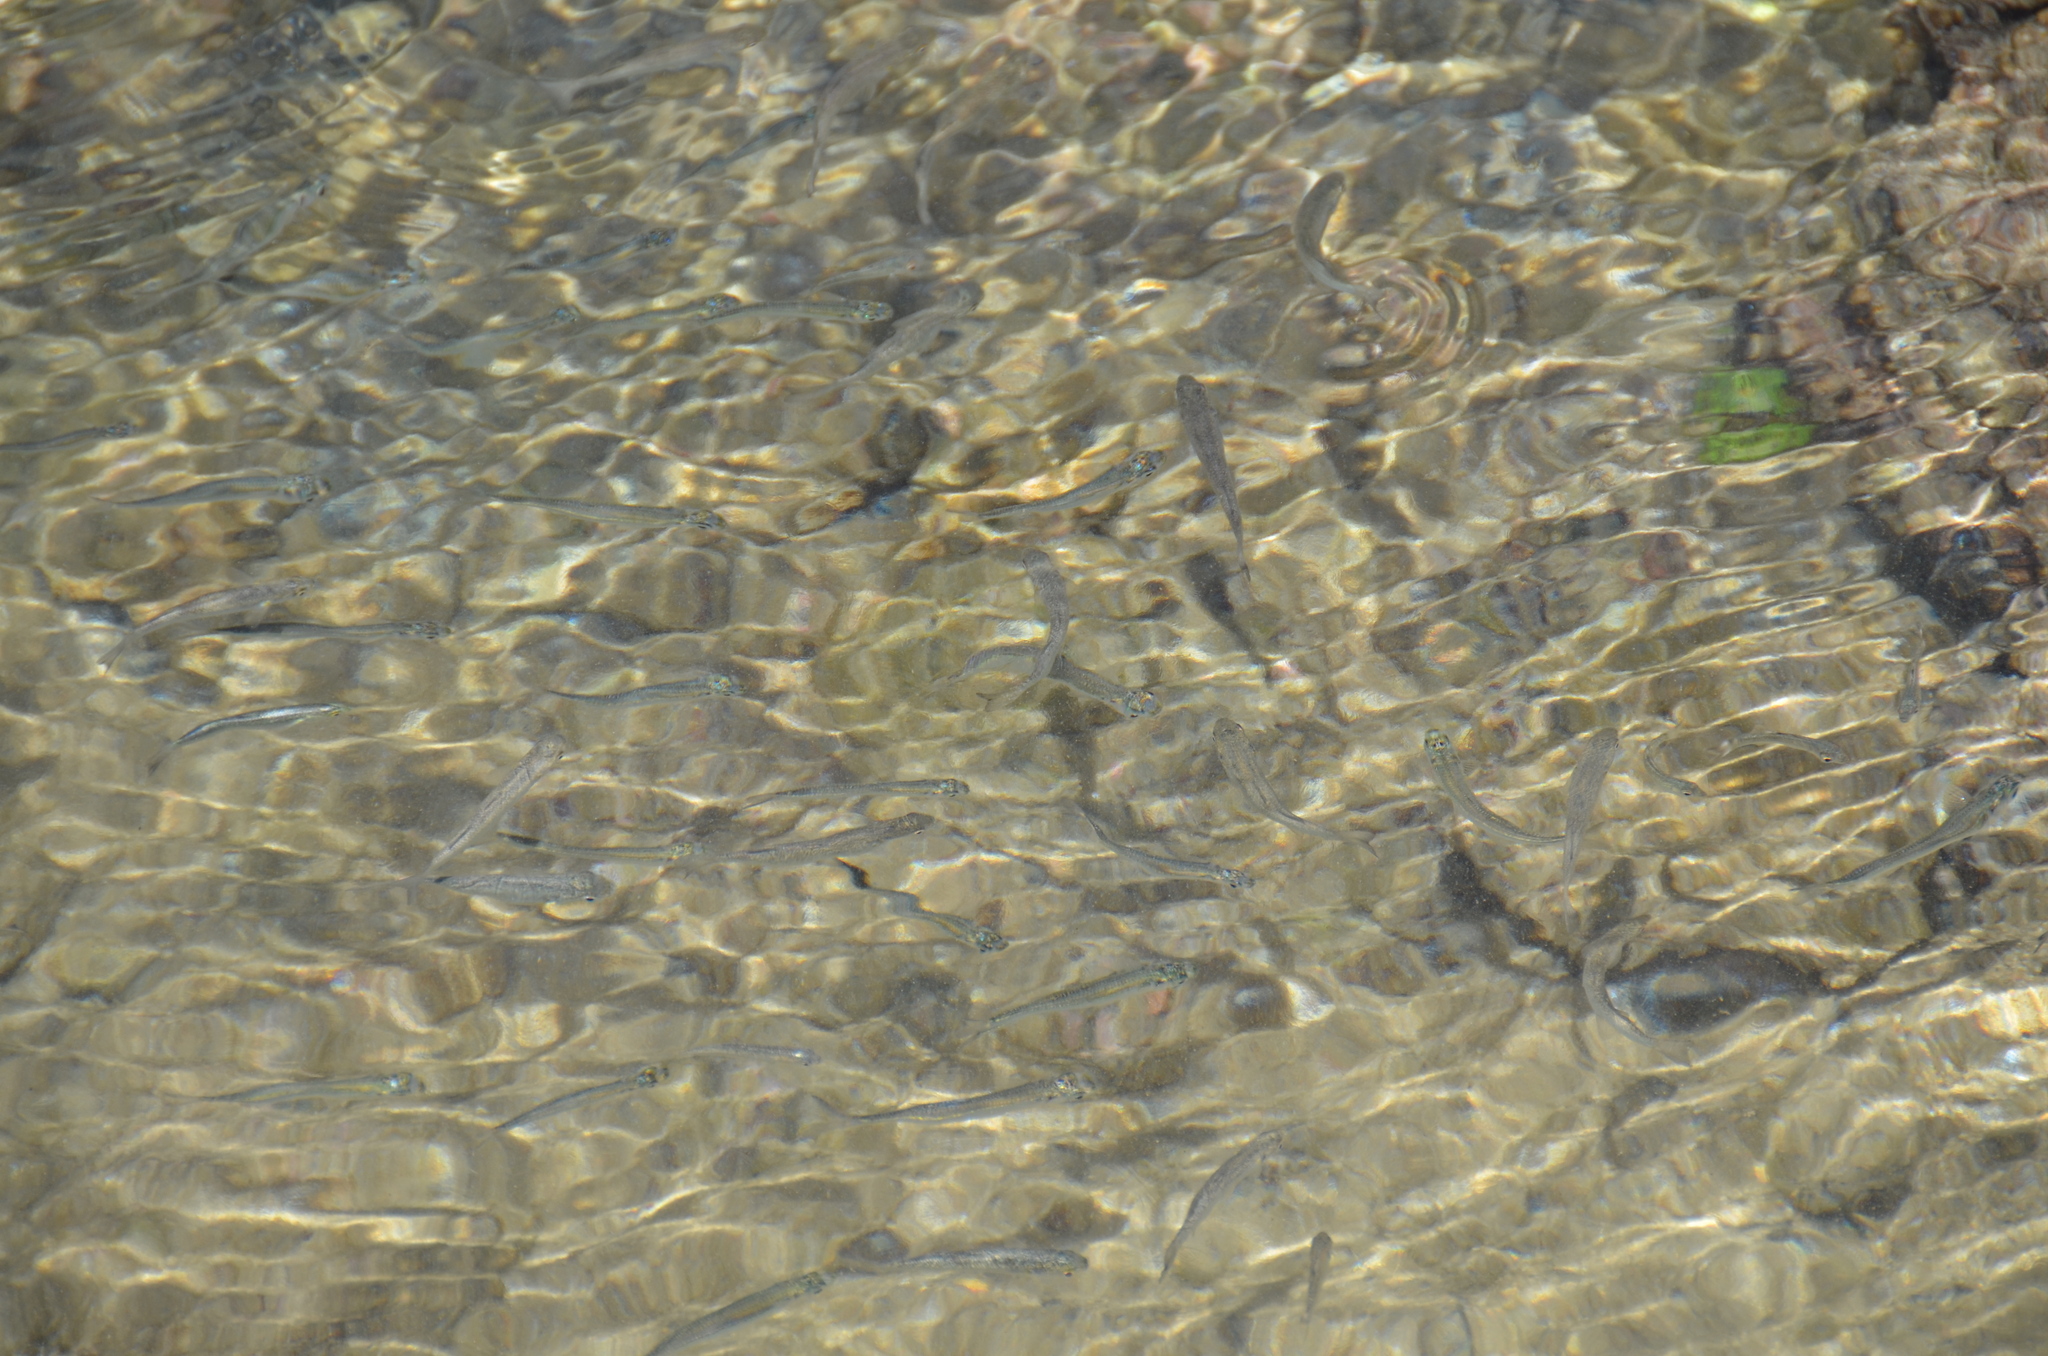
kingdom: Animalia
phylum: Chordata
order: Atheriniformes
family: Atherinidae
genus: Atherinomorus
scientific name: Atherinomorus insularum
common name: Hardyhead silverside
